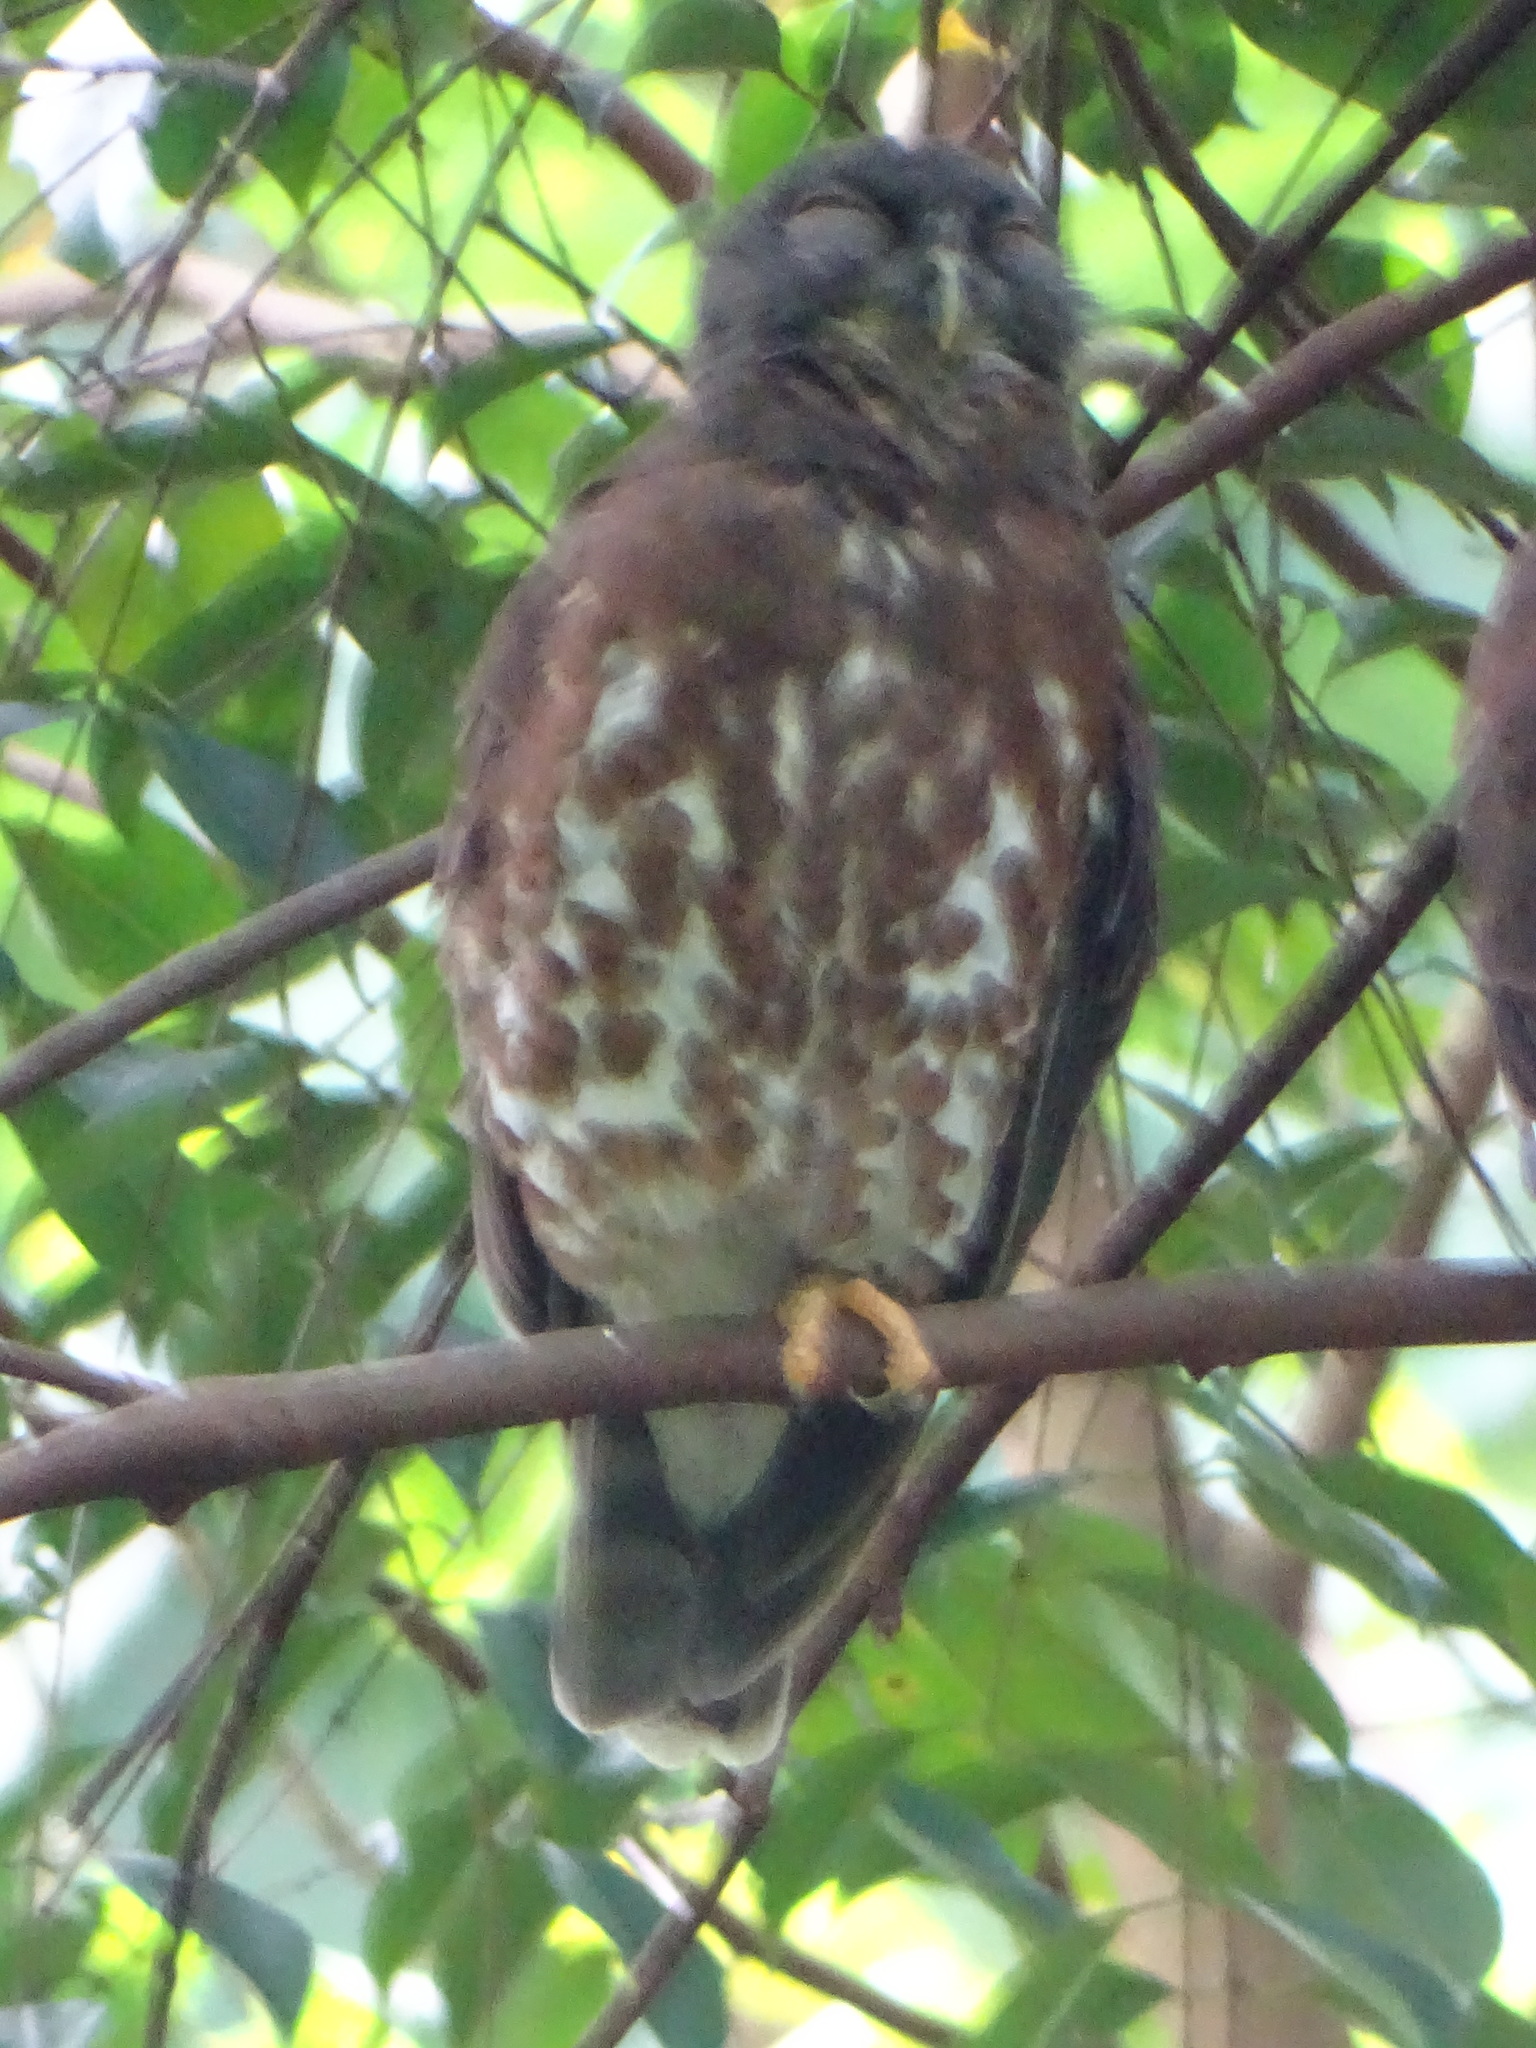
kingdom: Animalia
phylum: Chordata
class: Aves
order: Strigiformes
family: Strigidae
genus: Ninox
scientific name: Ninox scutulata
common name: Brown hawk-owl
